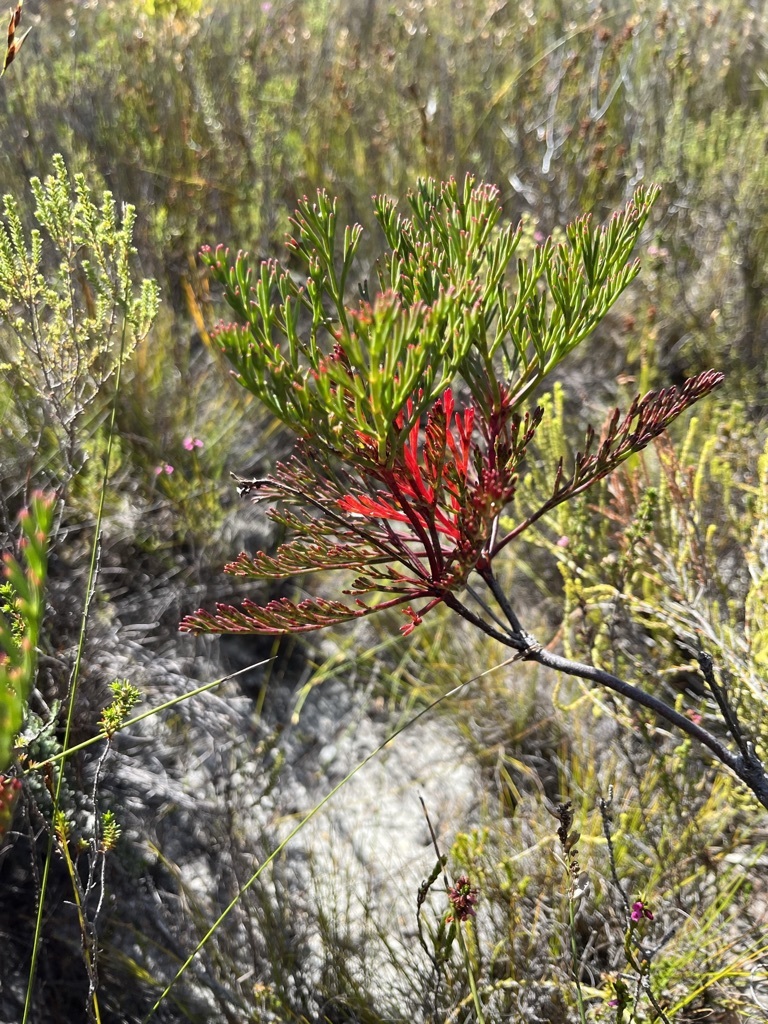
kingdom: Plantae
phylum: Tracheophyta
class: Magnoliopsida
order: Proteales
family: Proteaceae
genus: Serruria
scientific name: Serruria elongata
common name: Long-stalk spiderhead
